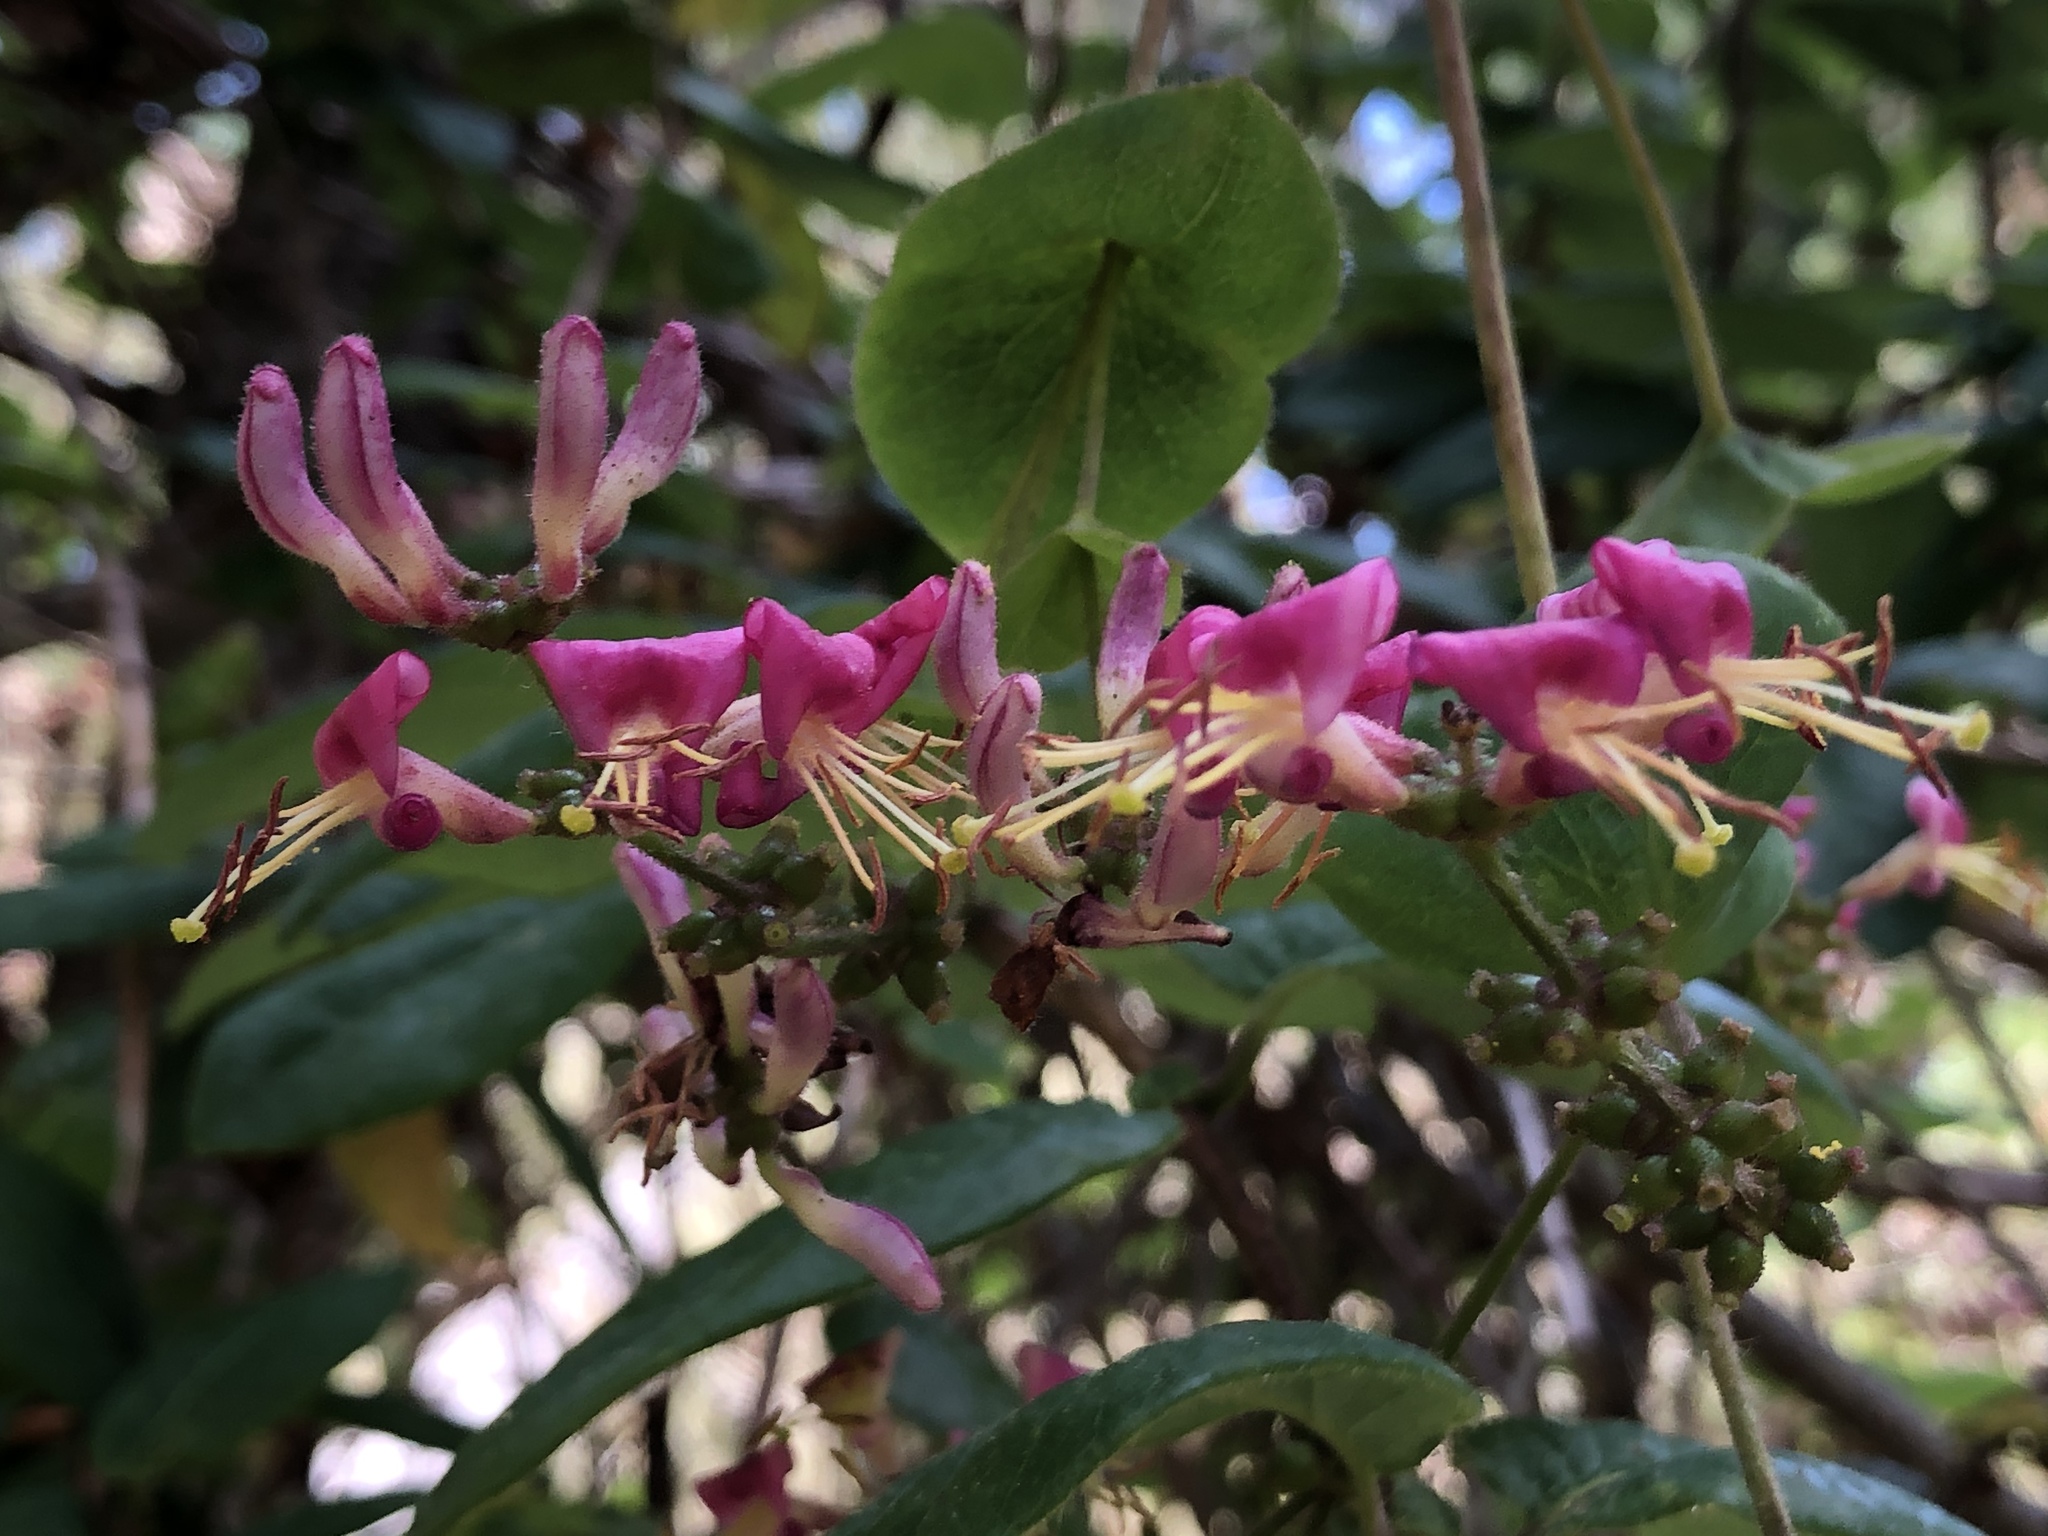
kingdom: Plantae
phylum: Tracheophyta
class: Magnoliopsida
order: Dipsacales
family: Caprifoliaceae
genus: Lonicera
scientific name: Lonicera hispidula
